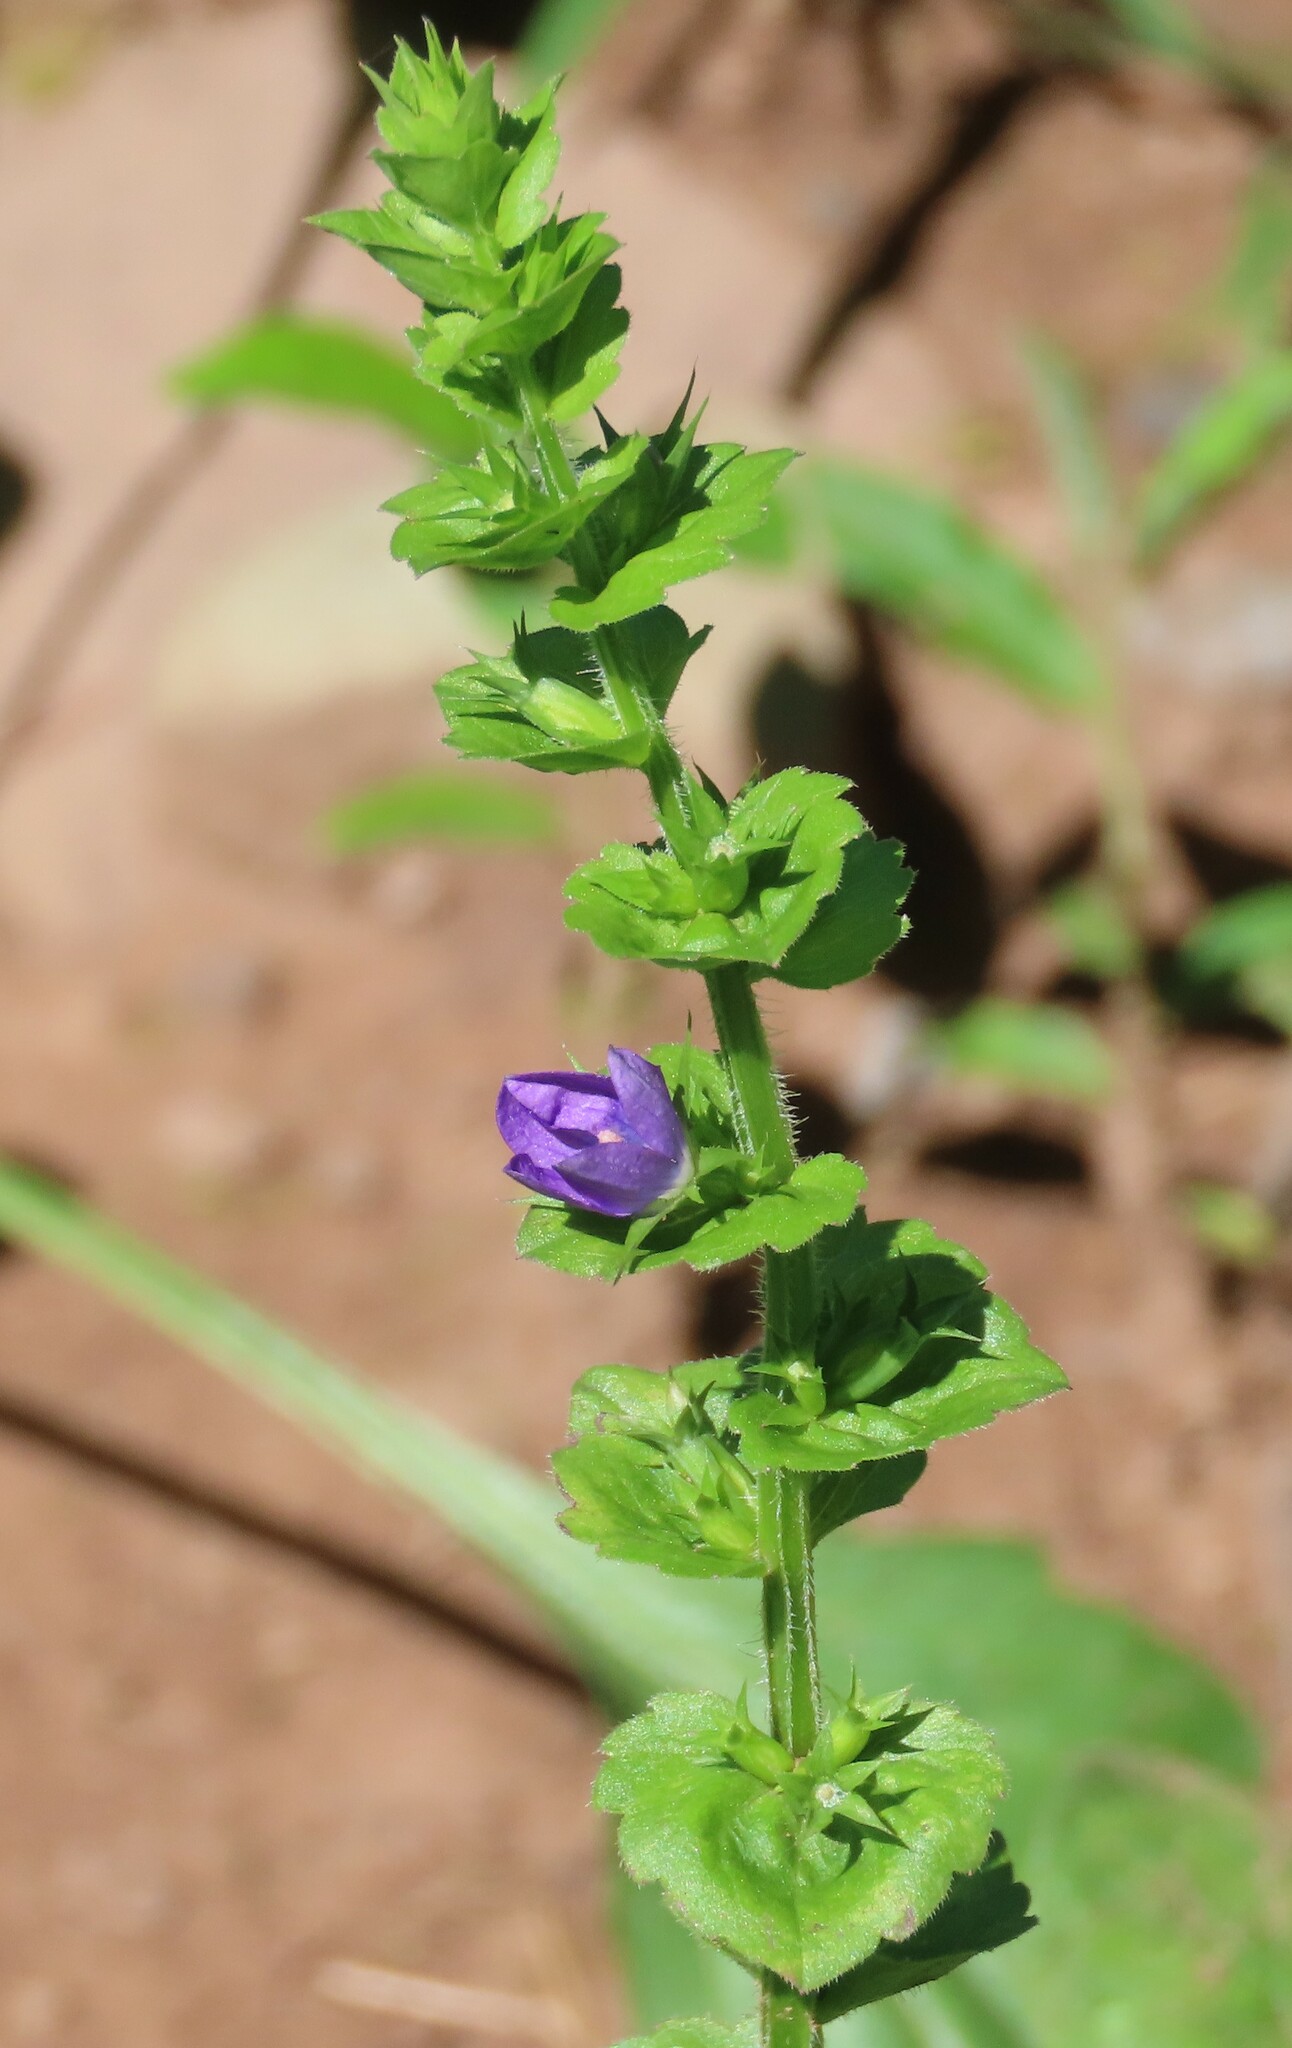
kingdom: Plantae
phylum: Tracheophyta
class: Magnoliopsida
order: Asterales
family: Campanulaceae
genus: Triodanis
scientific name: Triodanis perfoliata
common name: Clasping venus' looking-glass
